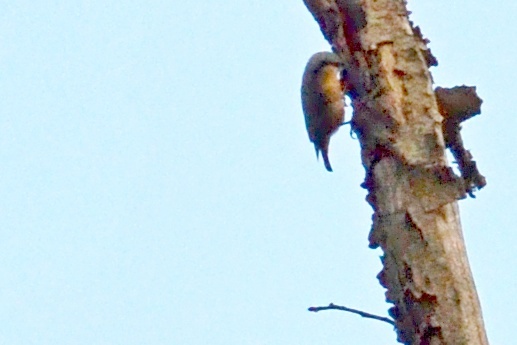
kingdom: Animalia
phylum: Chordata
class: Aves
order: Passeriformes
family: Sittidae
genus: Sitta
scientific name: Sitta europaea
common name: Eurasian nuthatch
